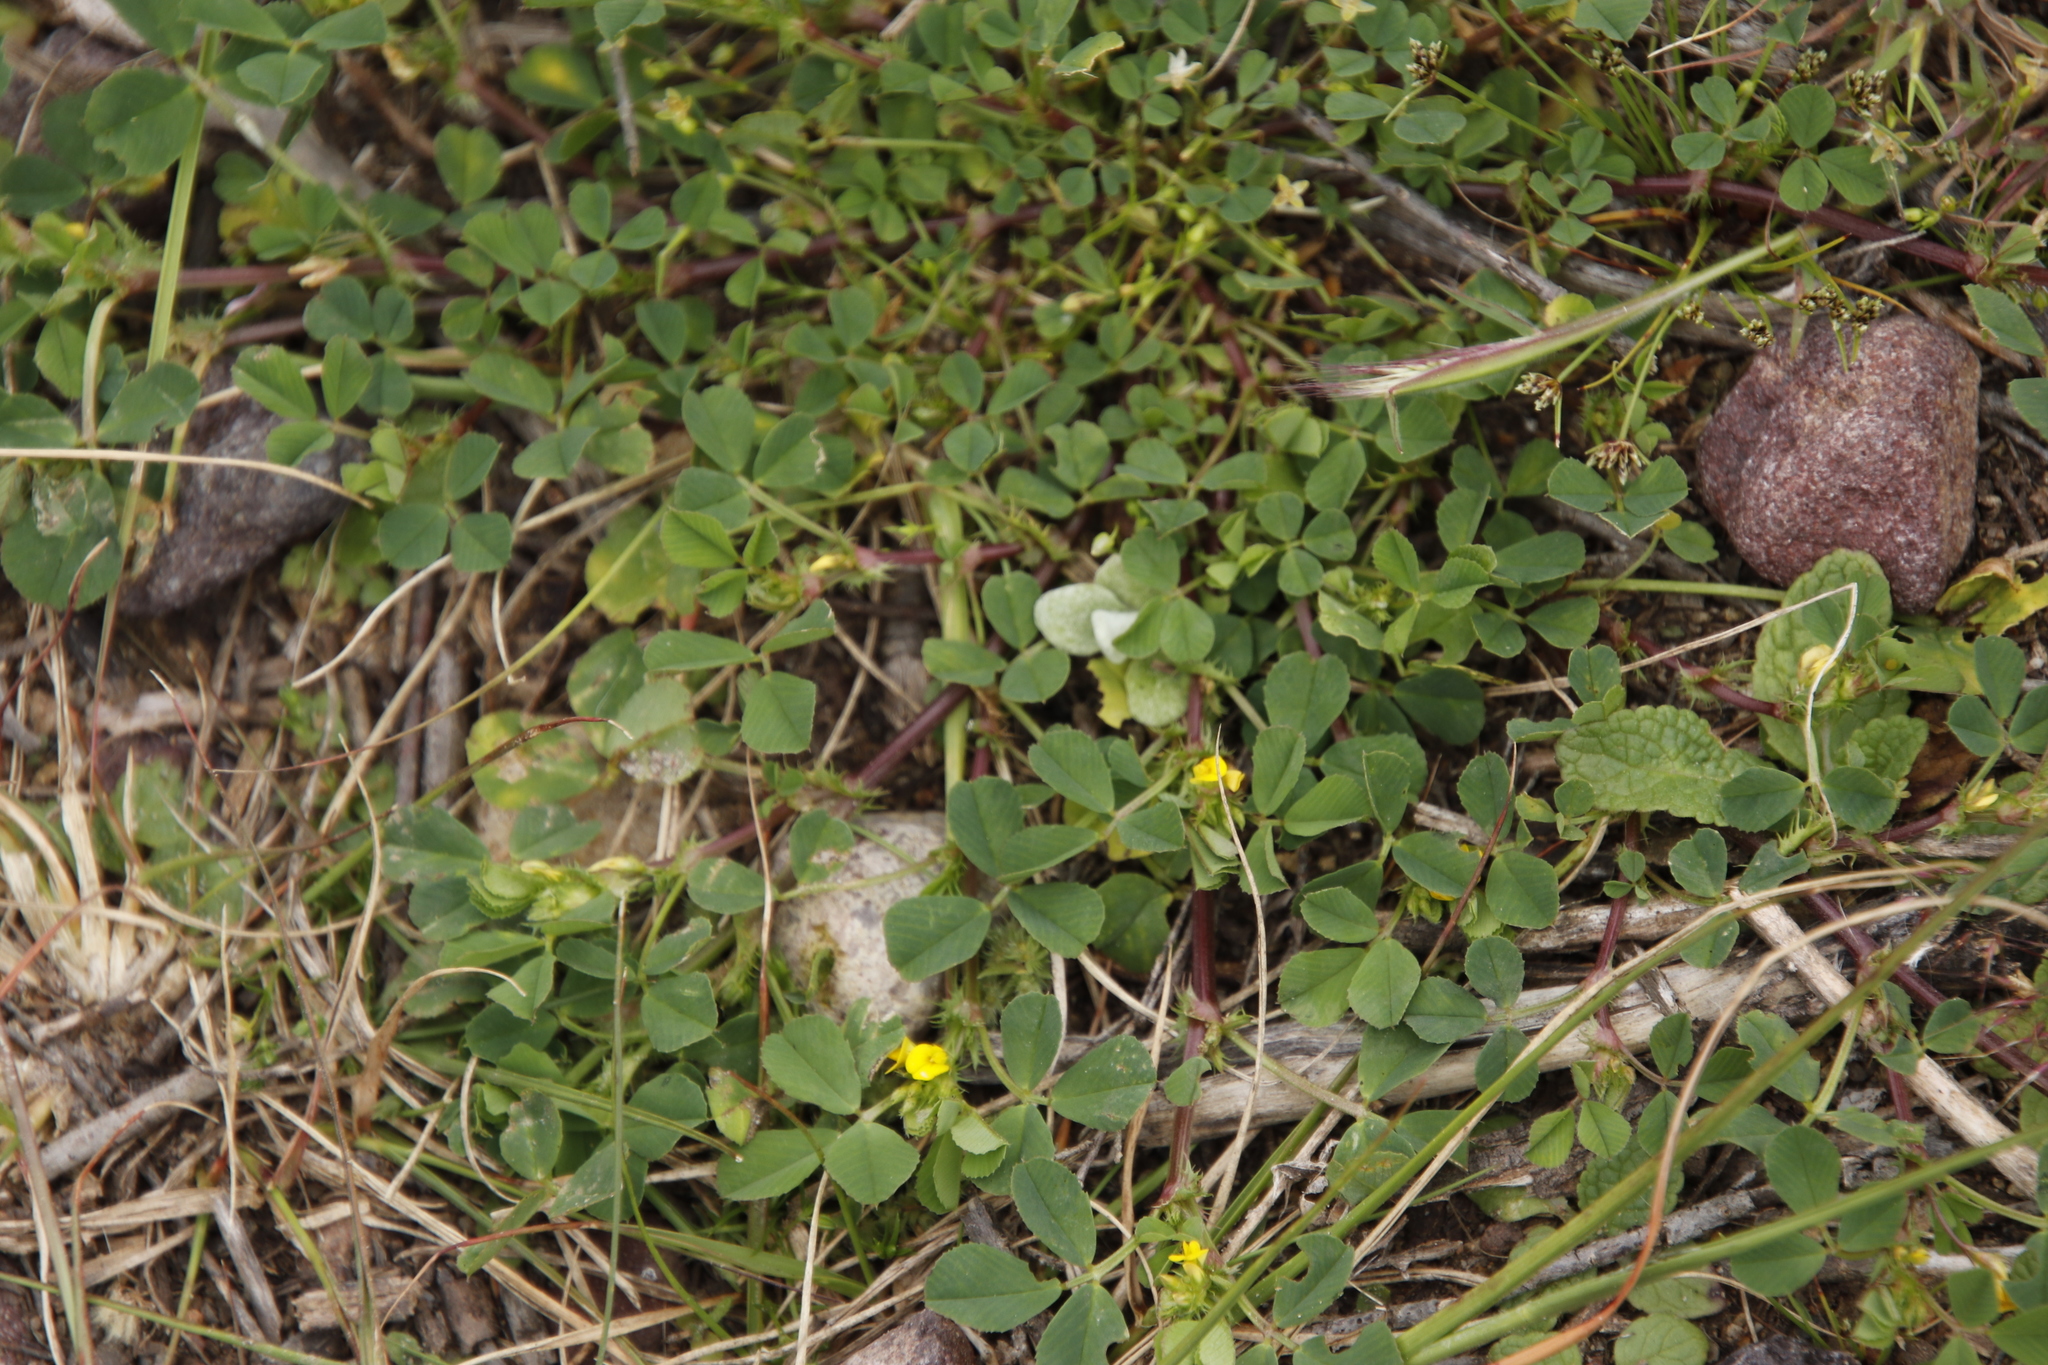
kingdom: Plantae
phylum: Tracheophyta
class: Magnoliopsida
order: Fabales
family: Fabaceae
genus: Medicago
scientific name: Medicago polymorpha
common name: Burclover
